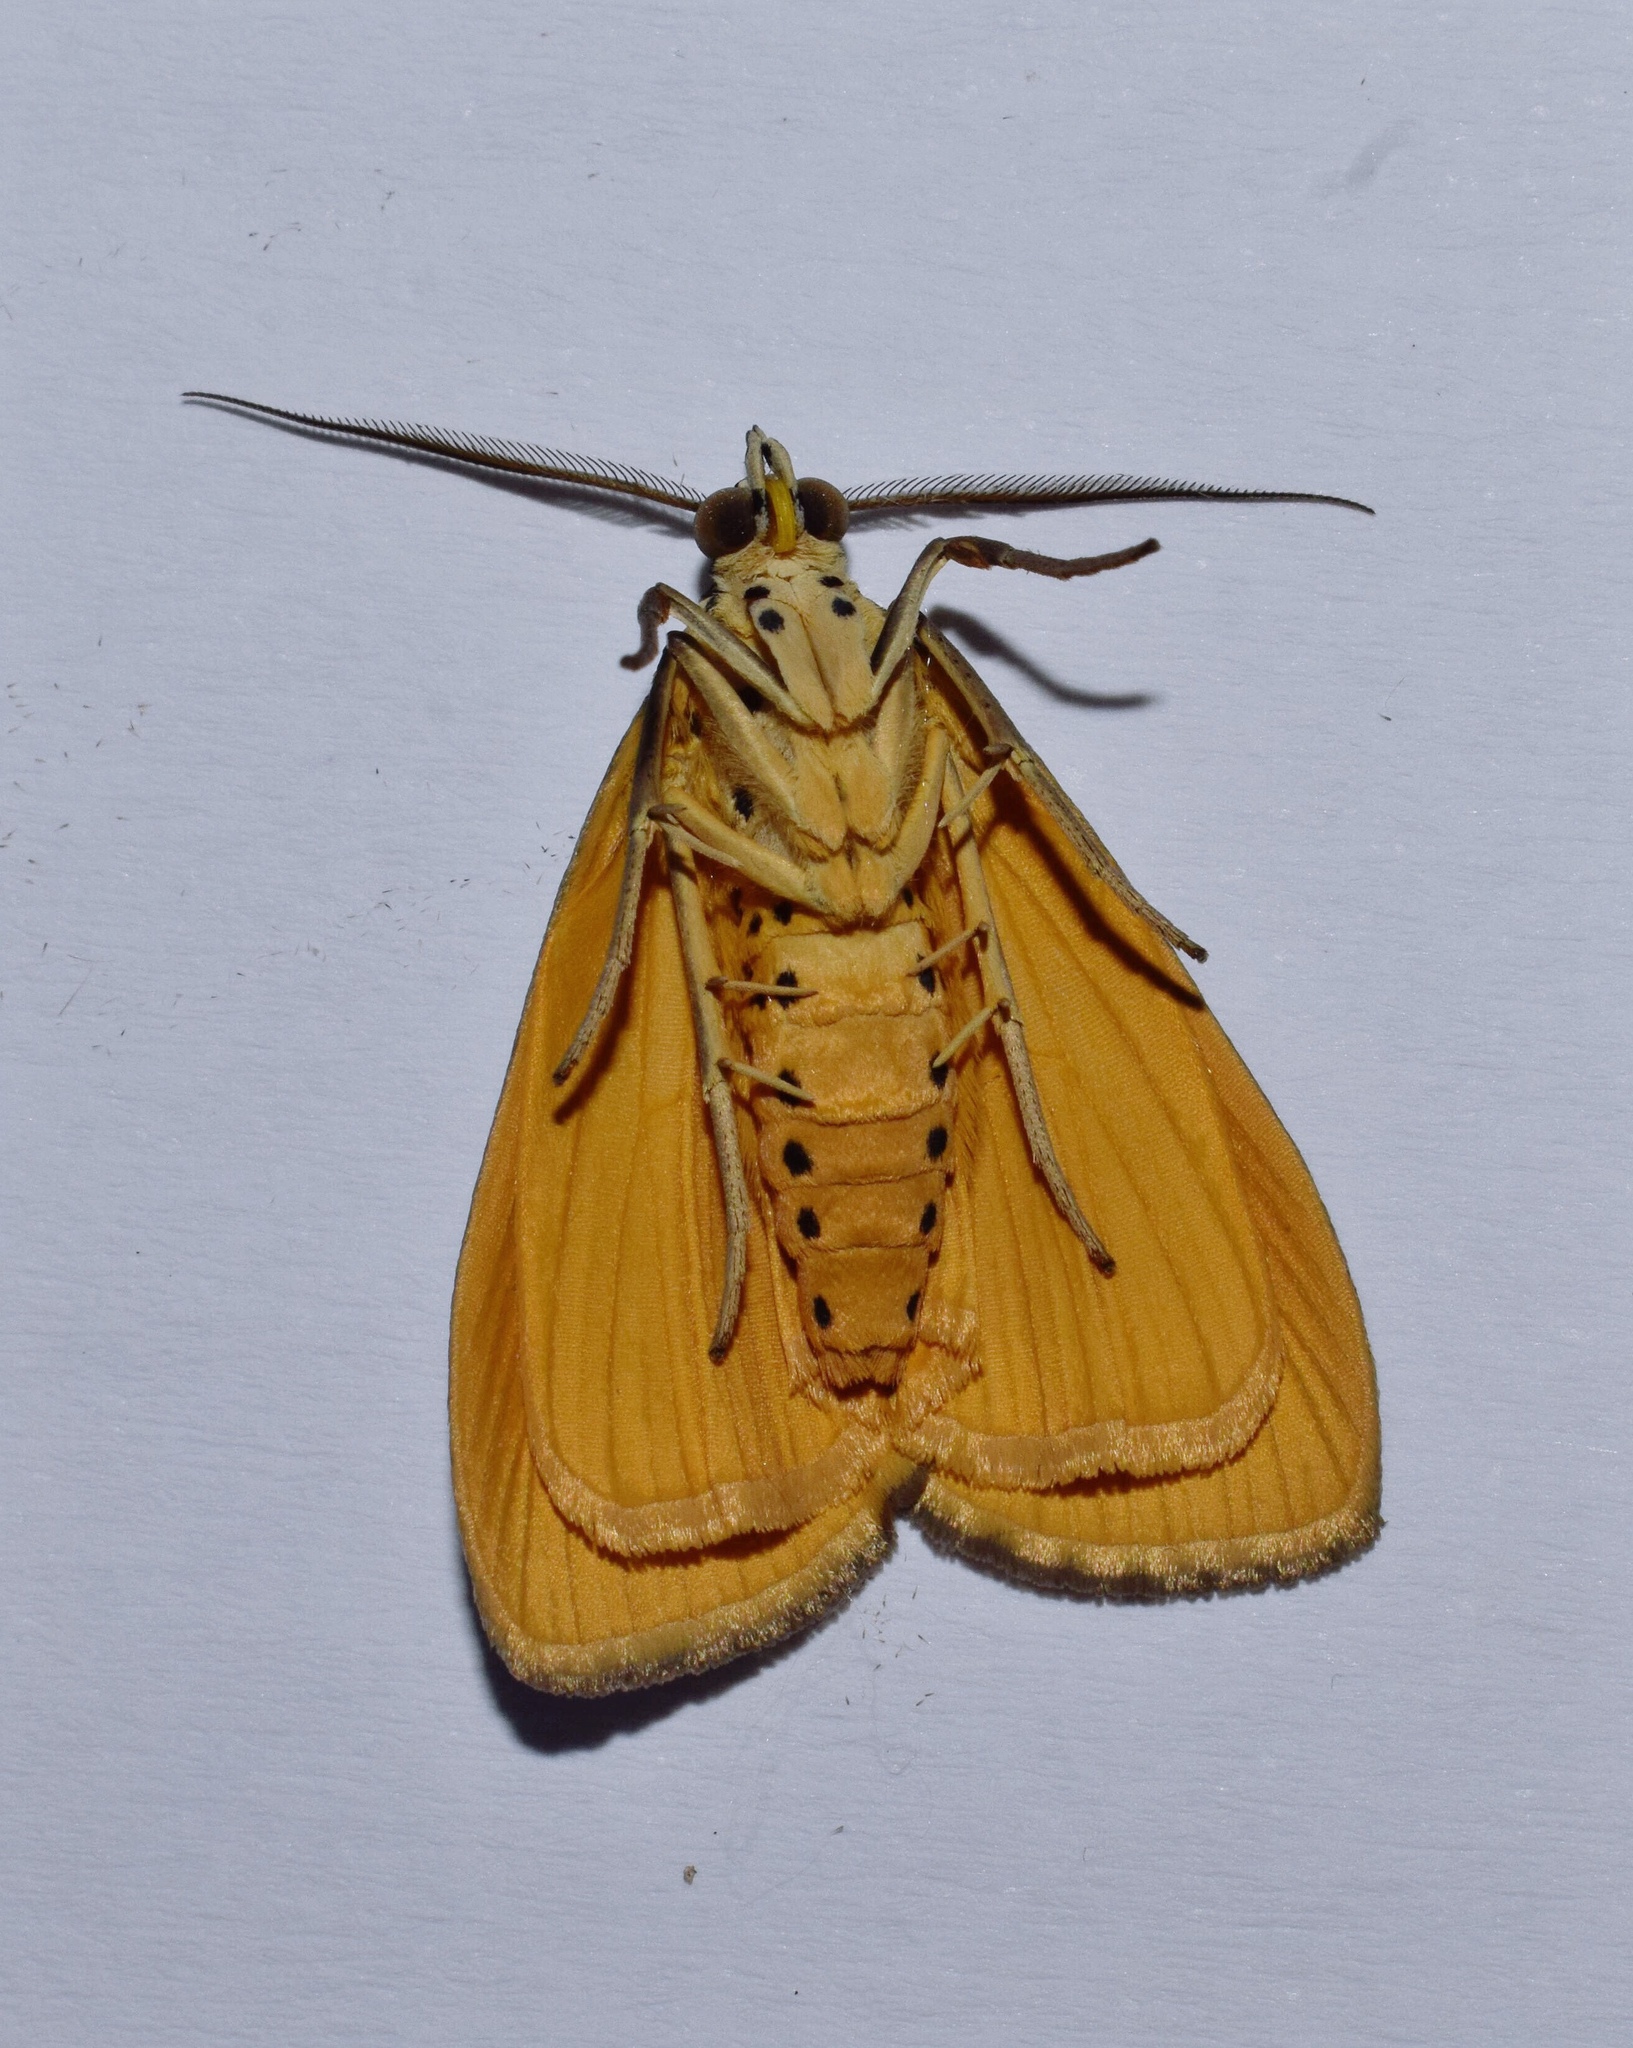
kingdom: Animalia
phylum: Arthropoda
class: Insecta
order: Lepidoptera
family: Erebidae
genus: Digama
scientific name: Digama aganais
